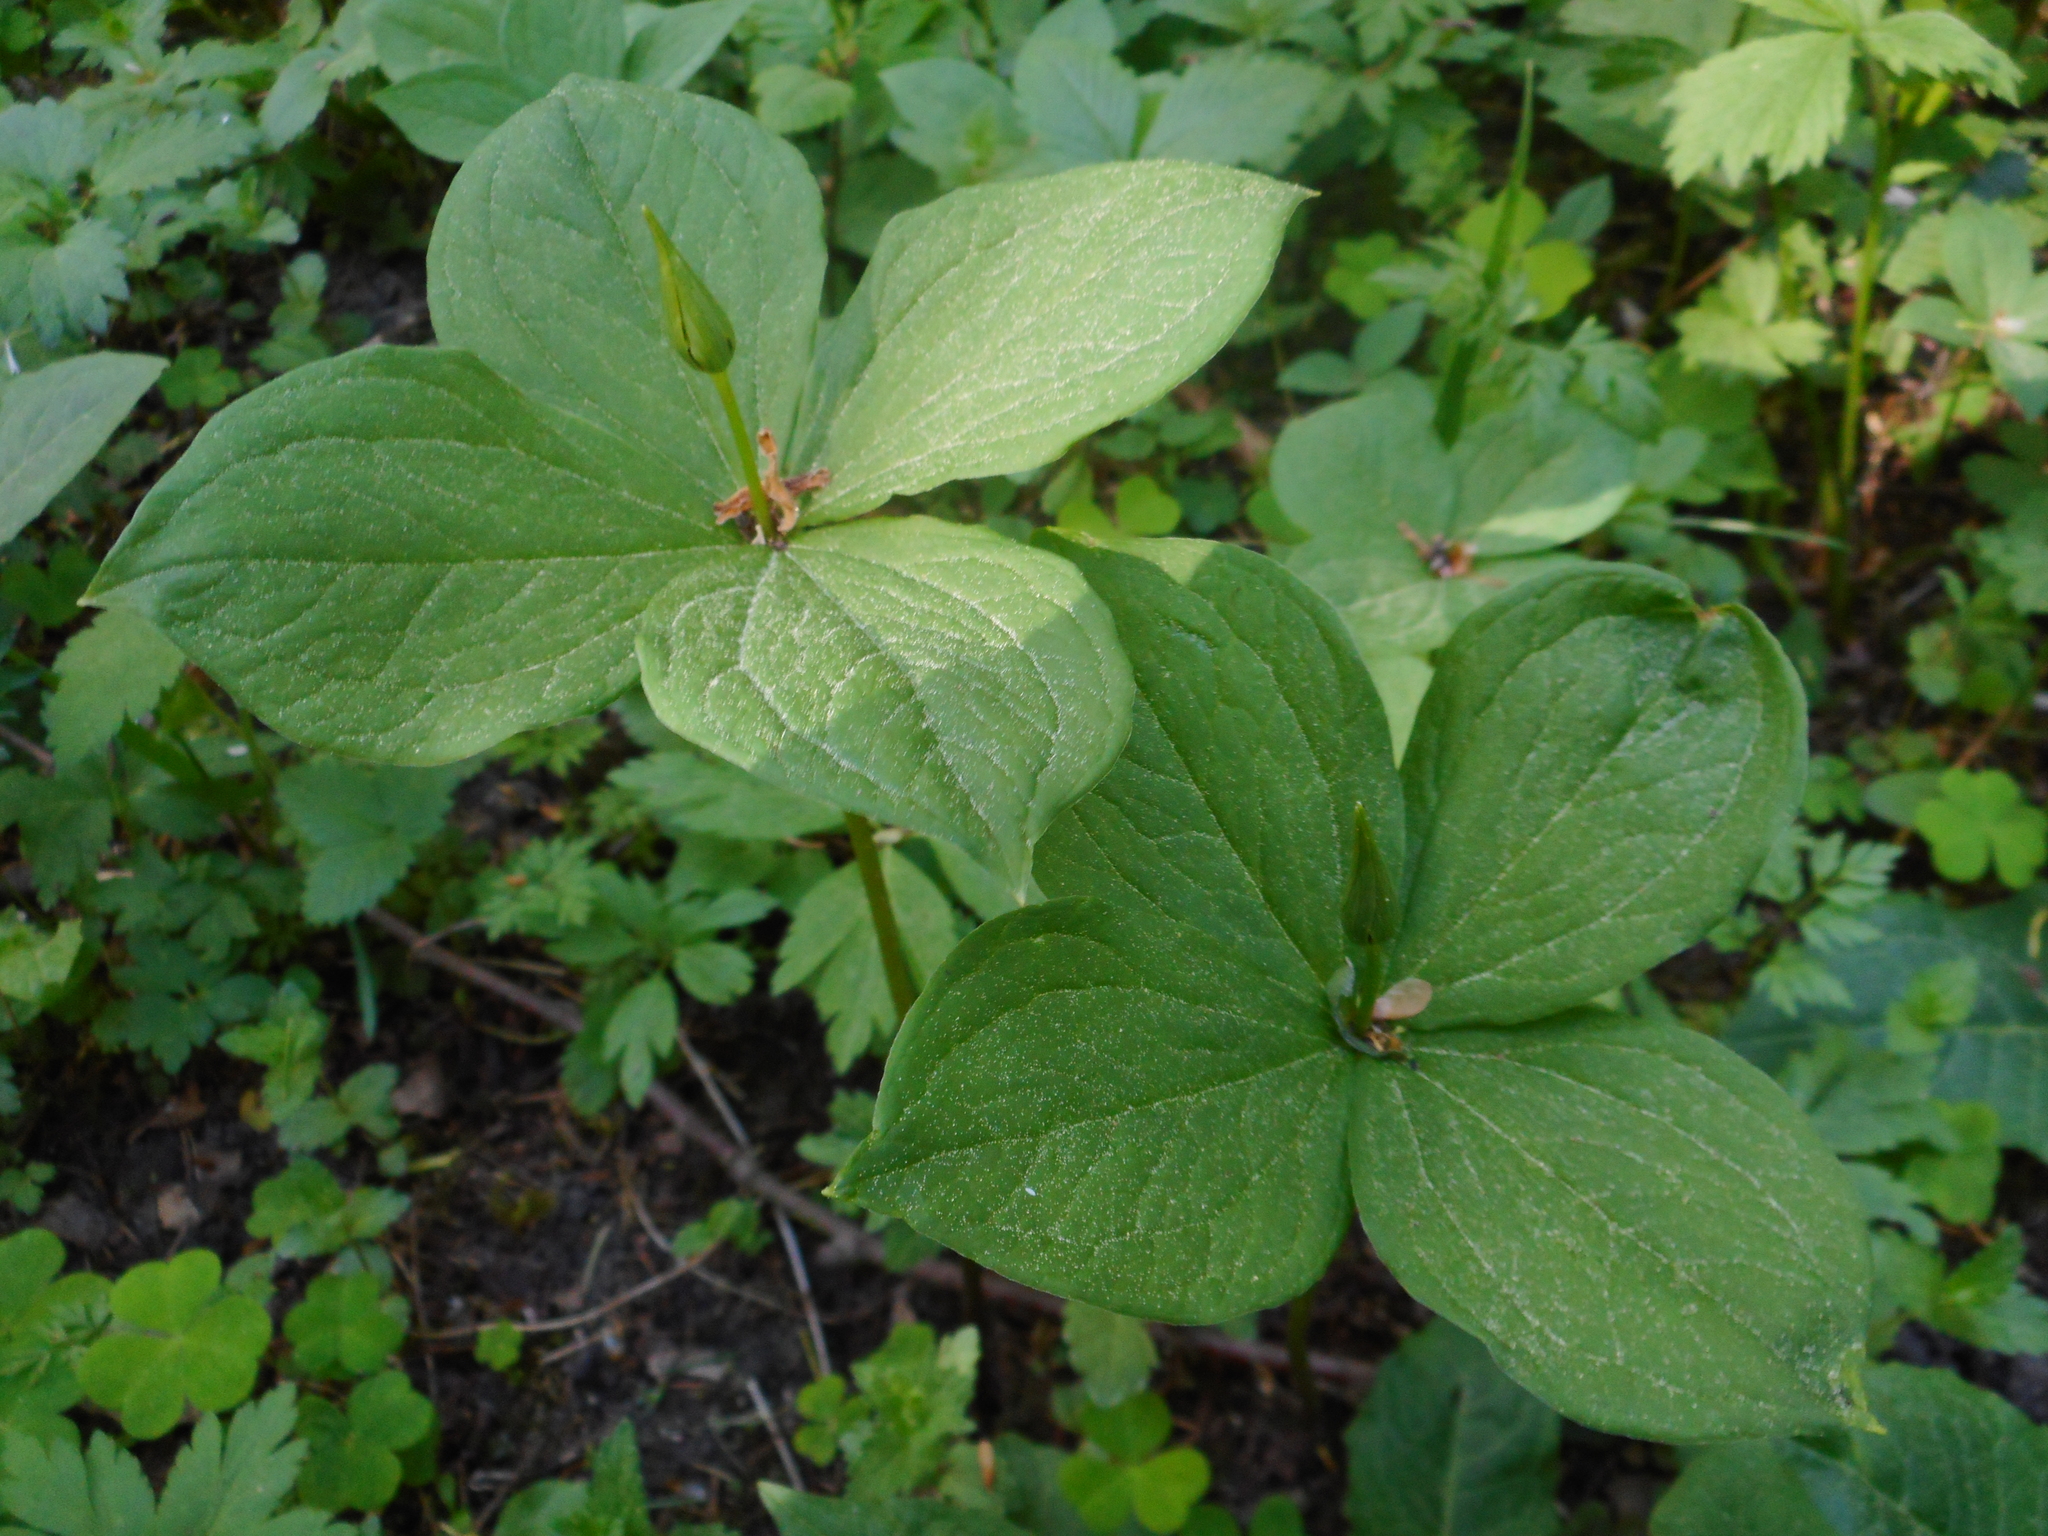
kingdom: Plantae
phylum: Tracheophyta
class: Liliopsida
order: Liliales
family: Melanthiaceae
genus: Paris
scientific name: Paris quadrifolia
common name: Herb-paris
